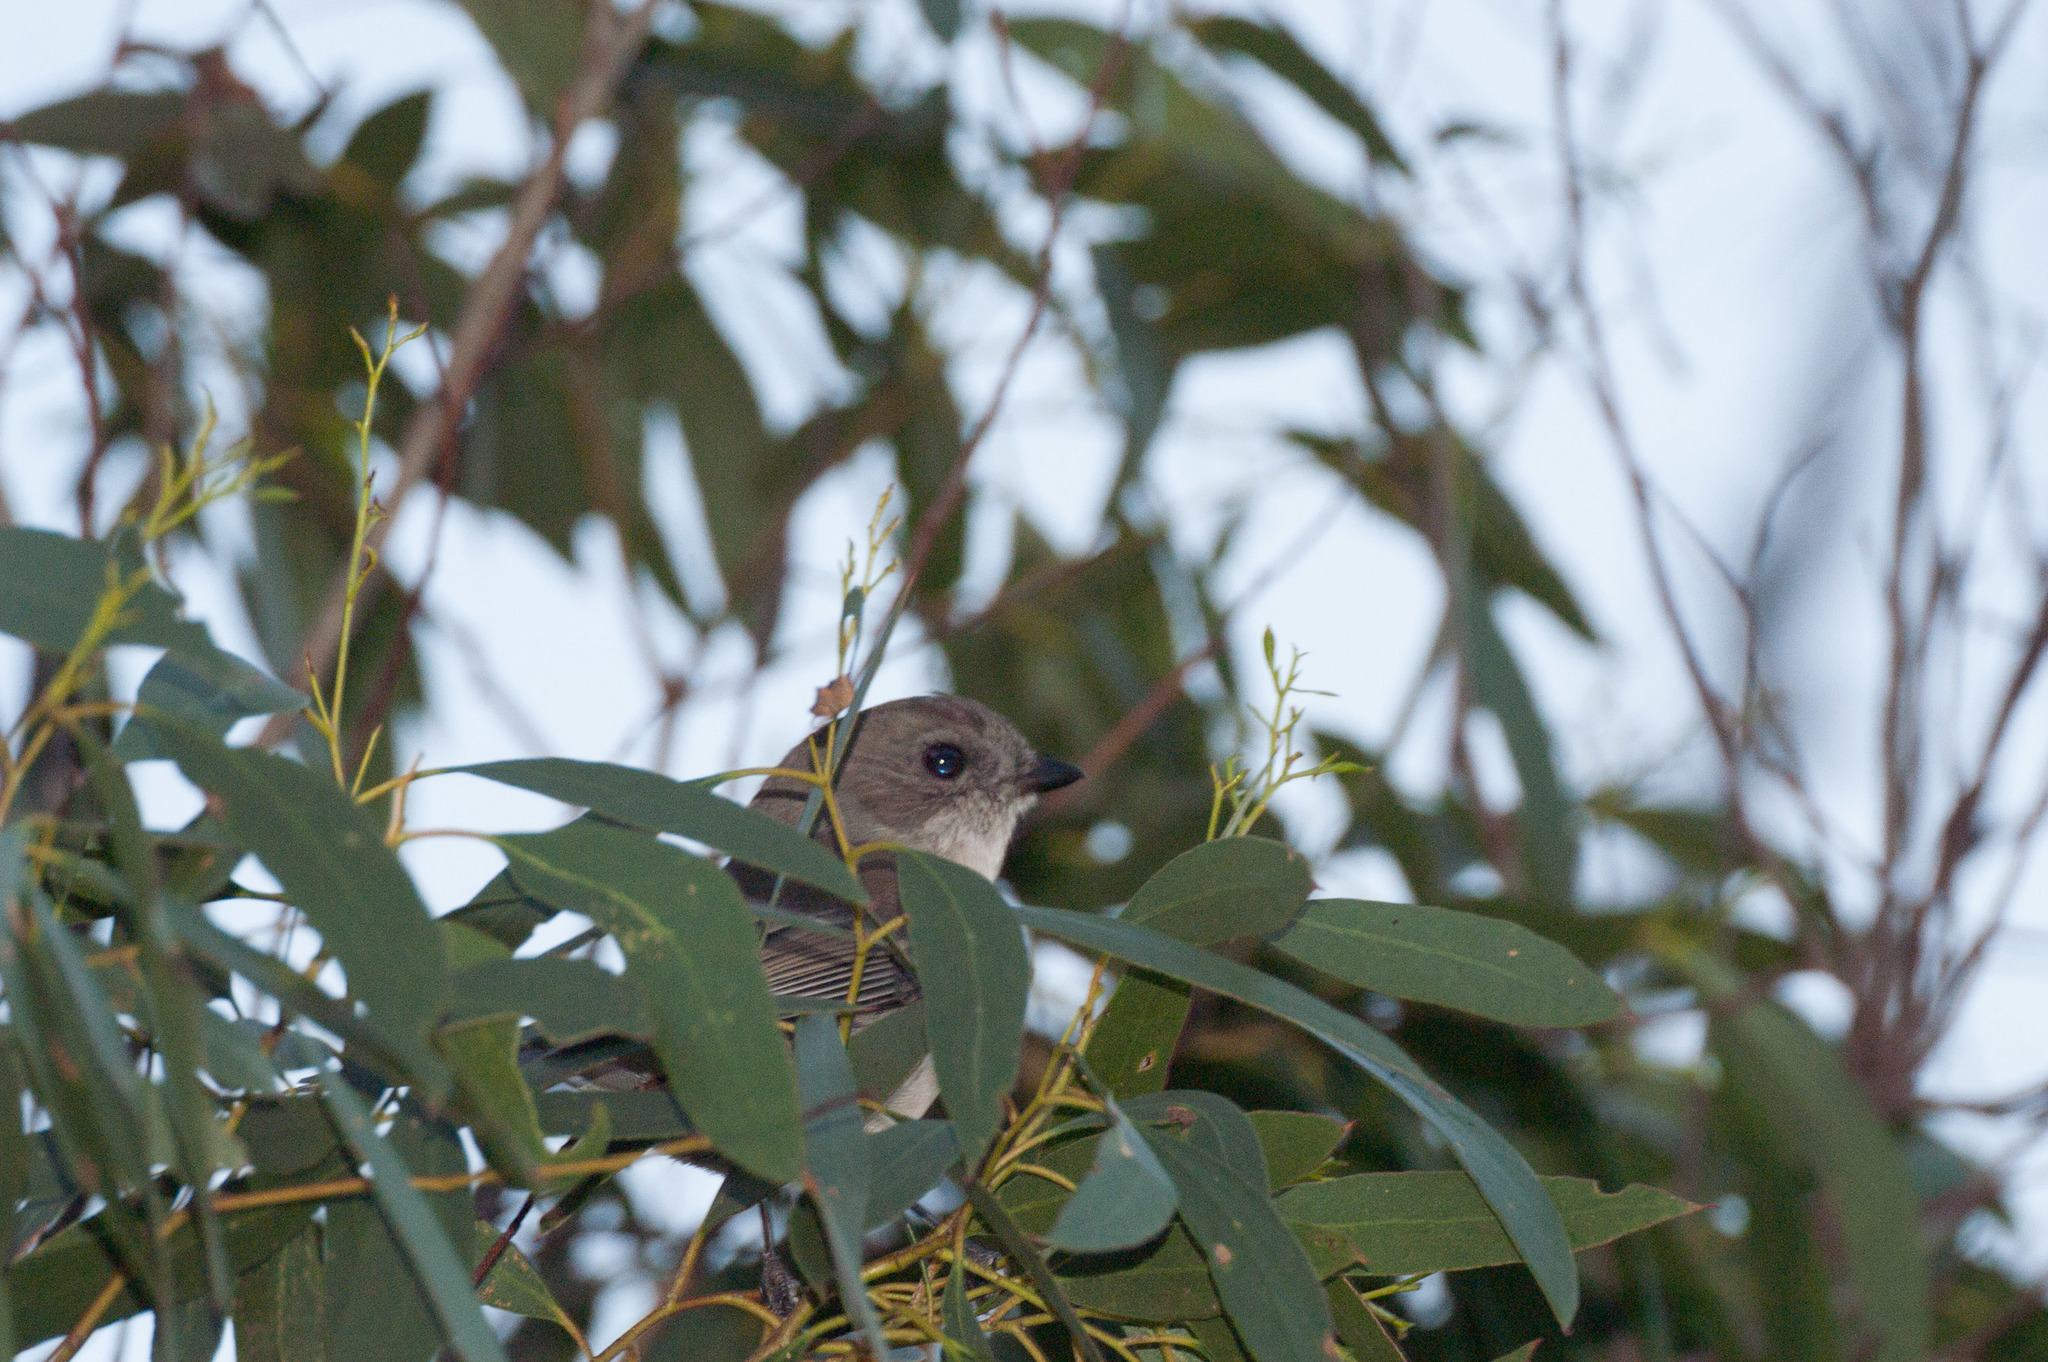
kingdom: Animalia
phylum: Chordata
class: Aves
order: Passeriformes
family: Pachycephalidae
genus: Pachycephala
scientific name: Pachycephala pectoralis
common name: Australian golden whistler
